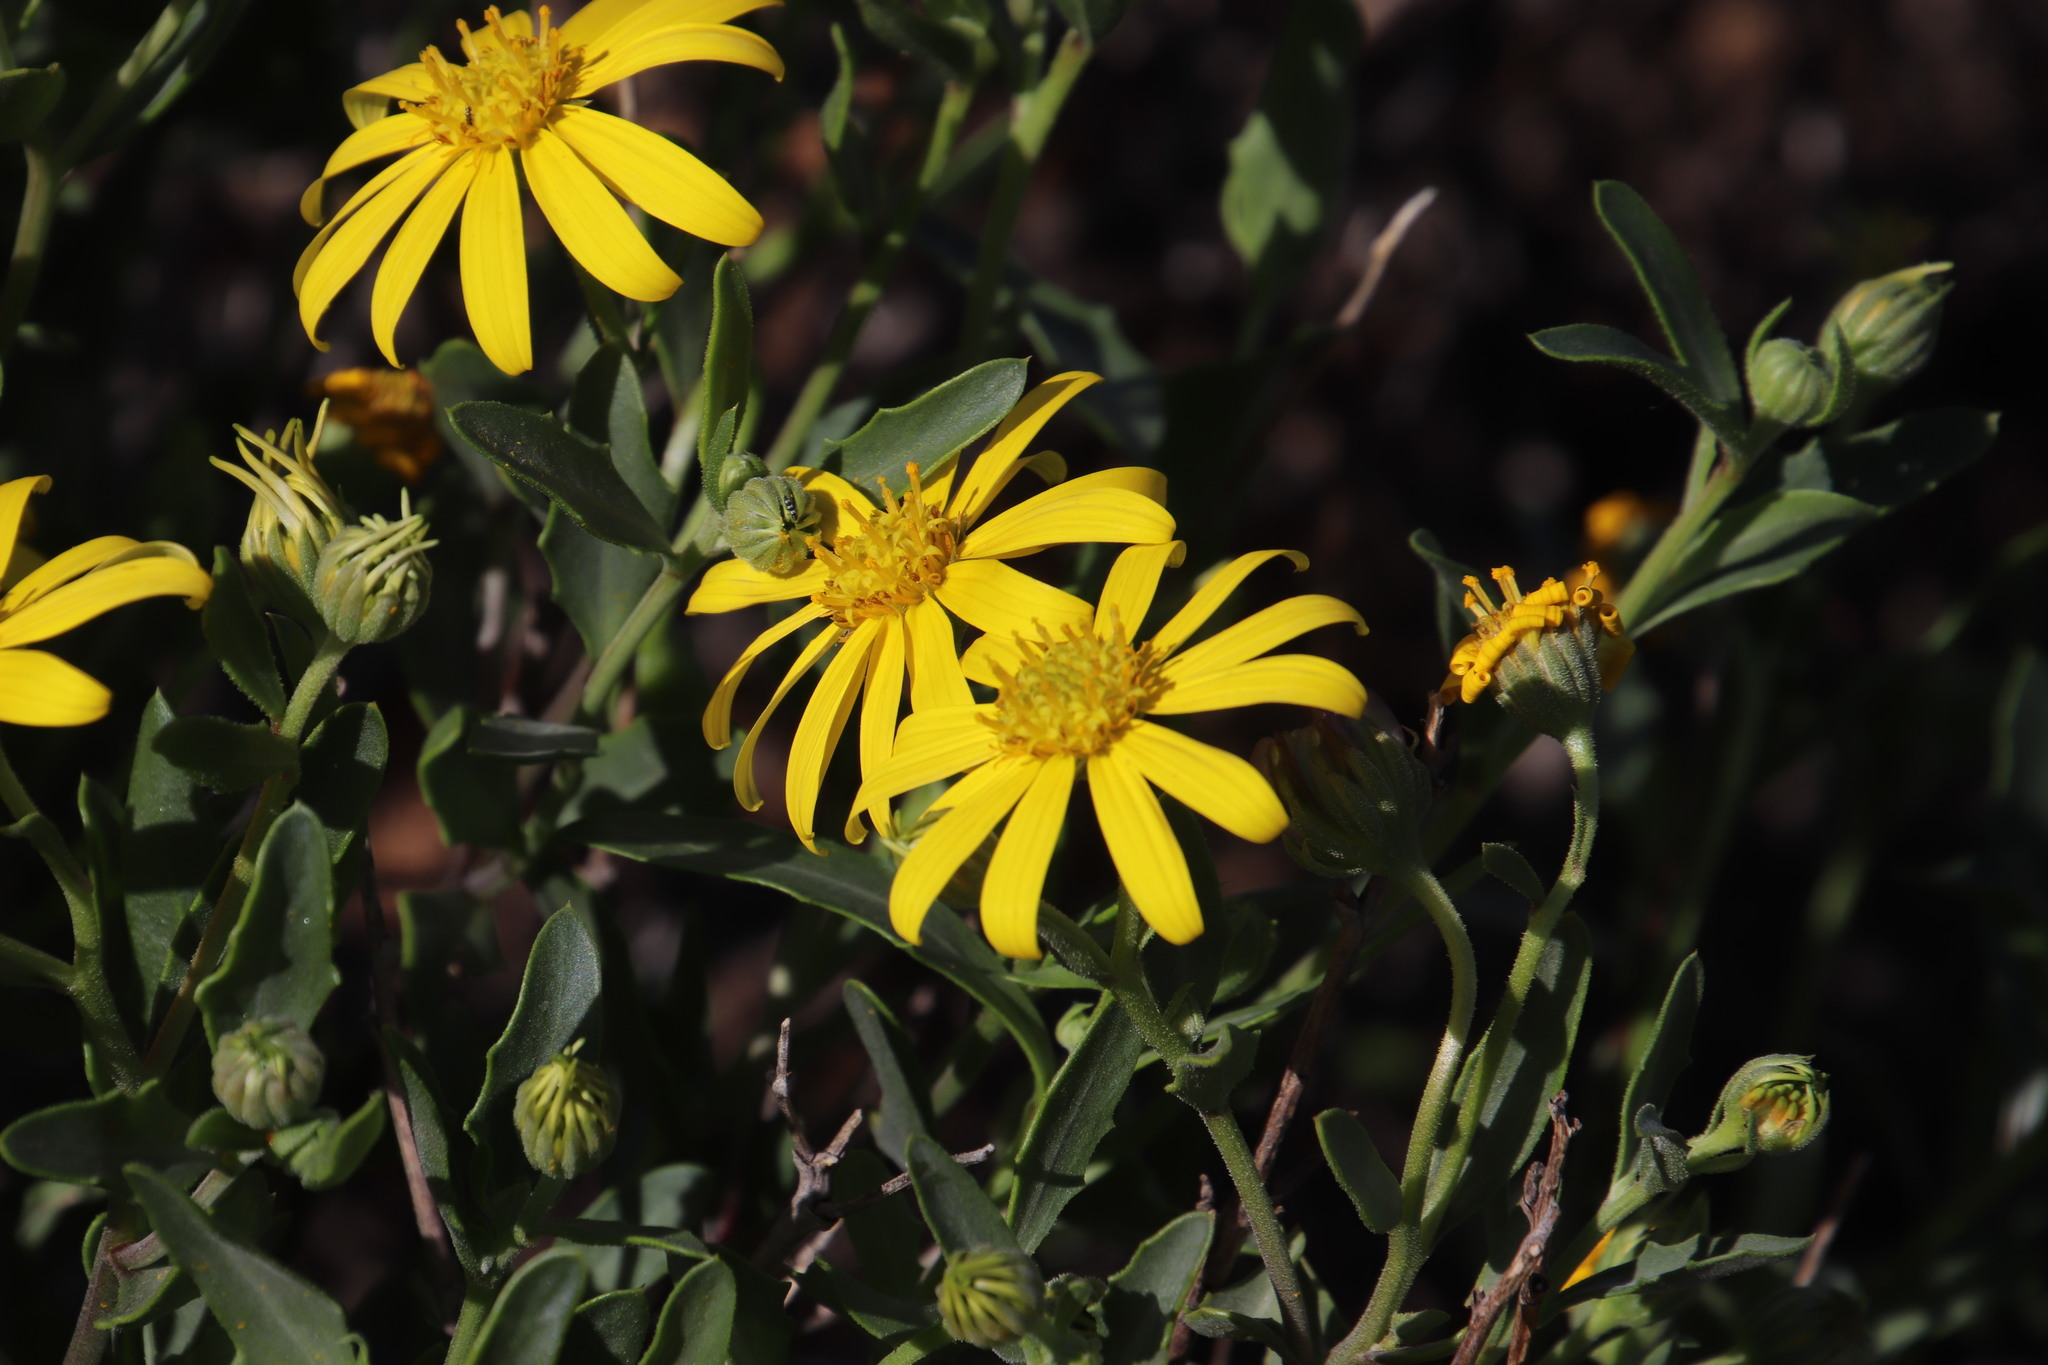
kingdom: Plantae
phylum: Tracheophyta
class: Magnoliopsida
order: Asterales
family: Asteraceae
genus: Osteospermum
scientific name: Osteospermum sinuatum
